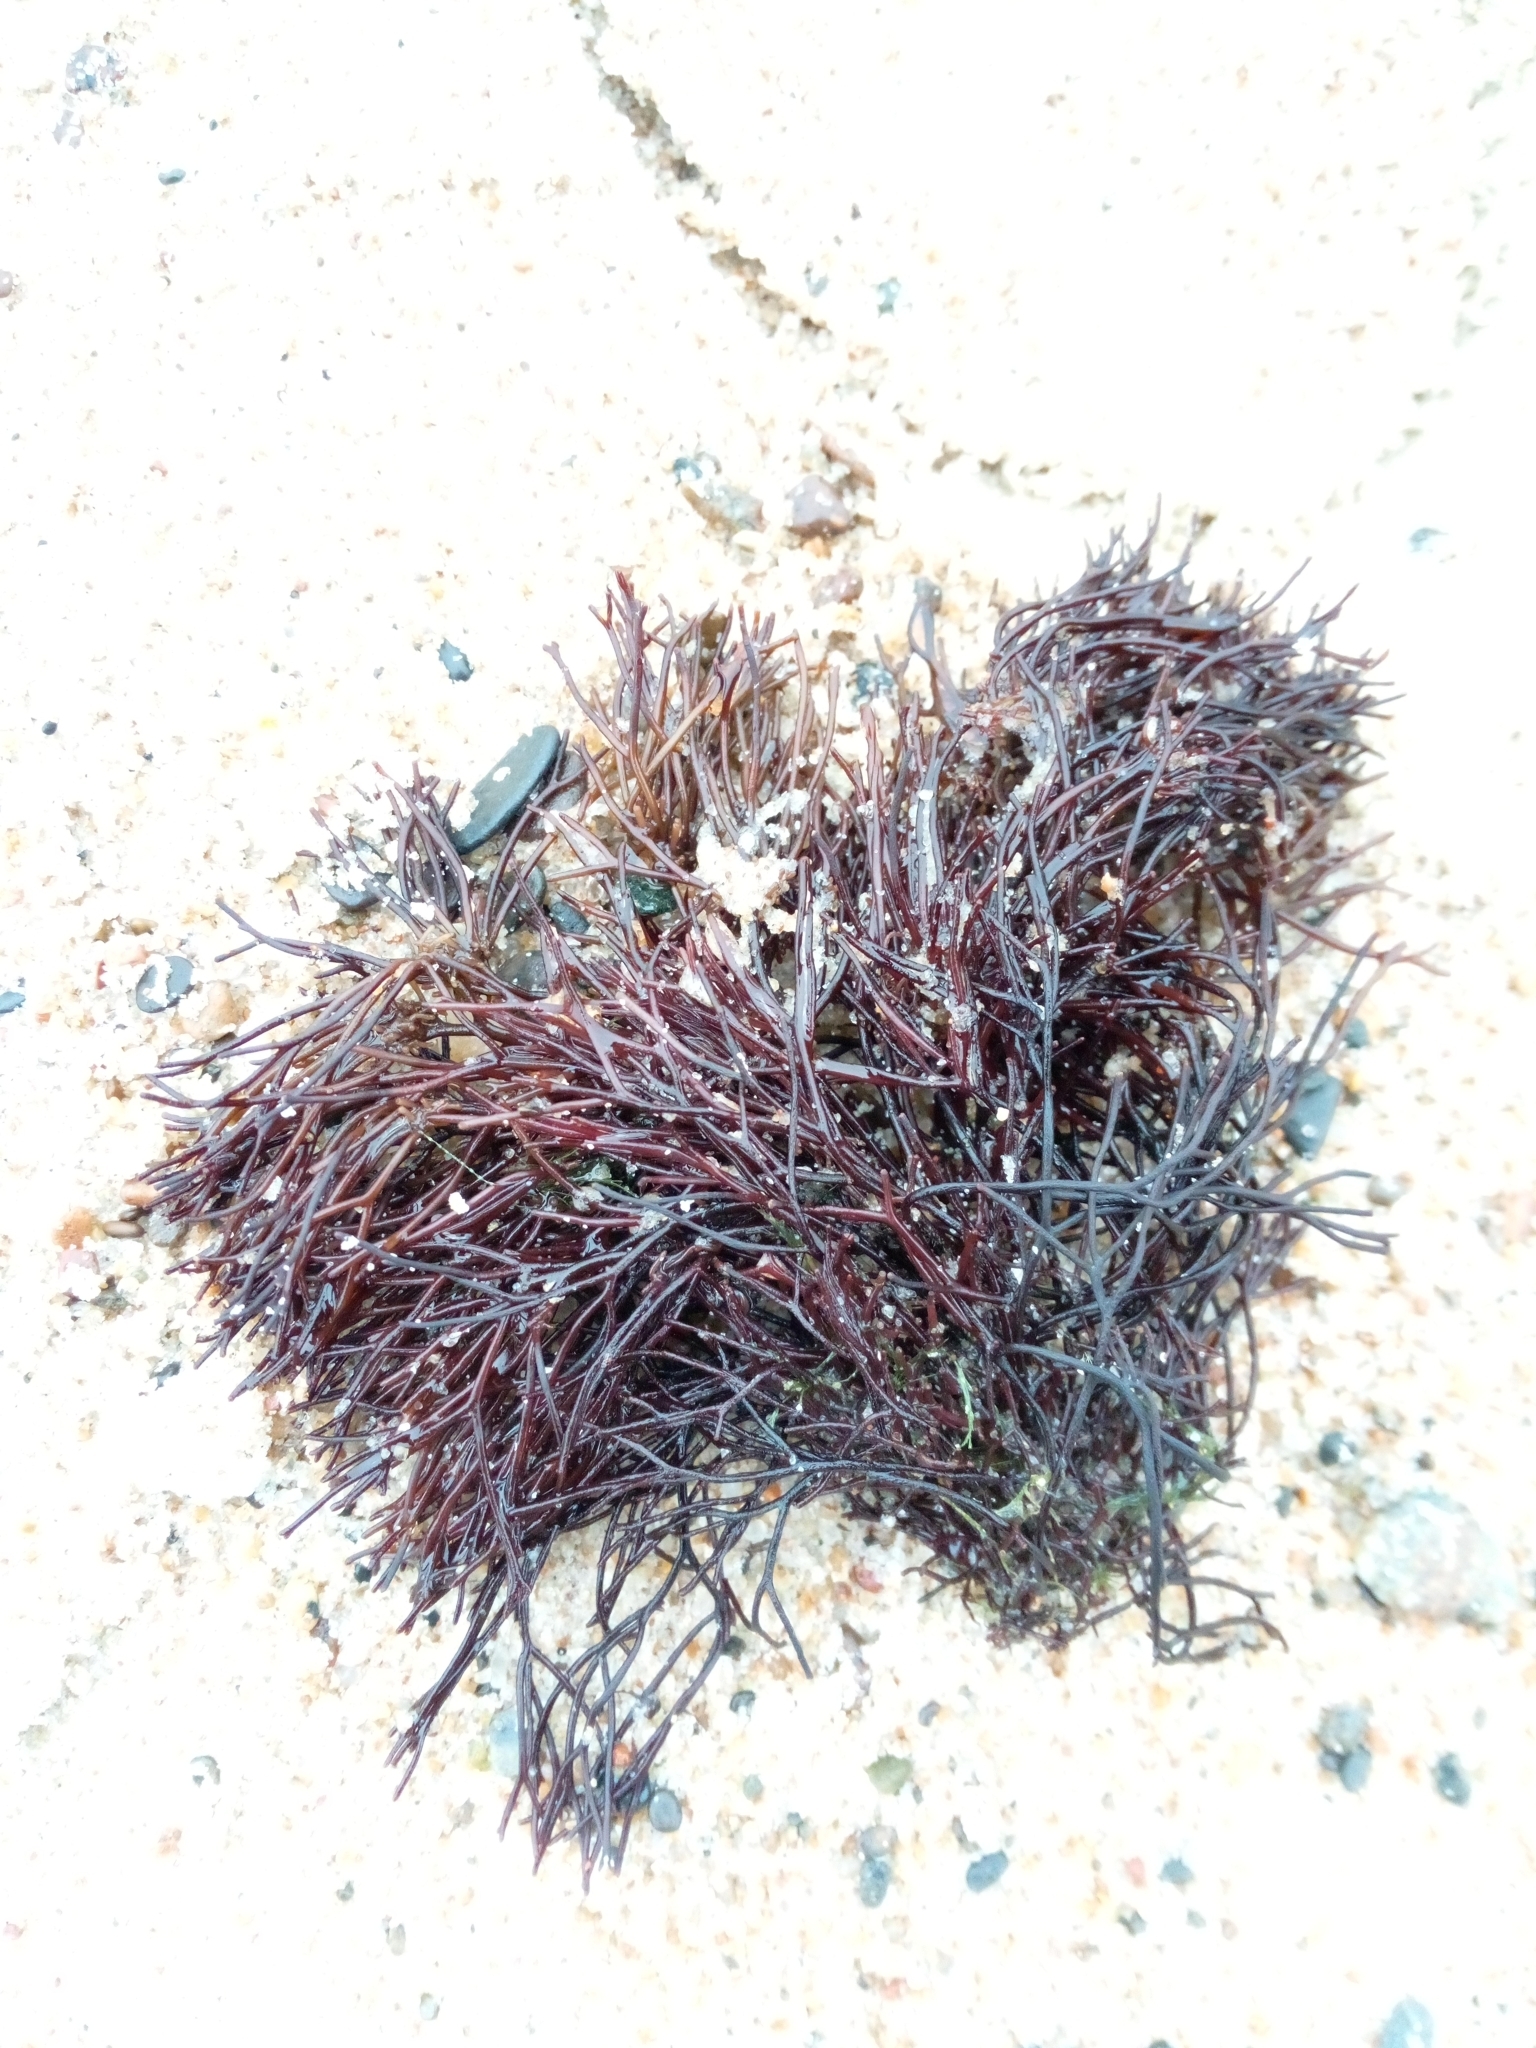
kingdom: Plantae
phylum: Rhodophyta
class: Florideophyceae
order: Gigartinales
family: Furcellariaceae
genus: Furcellaria
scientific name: Furcellaria lumbricalis
